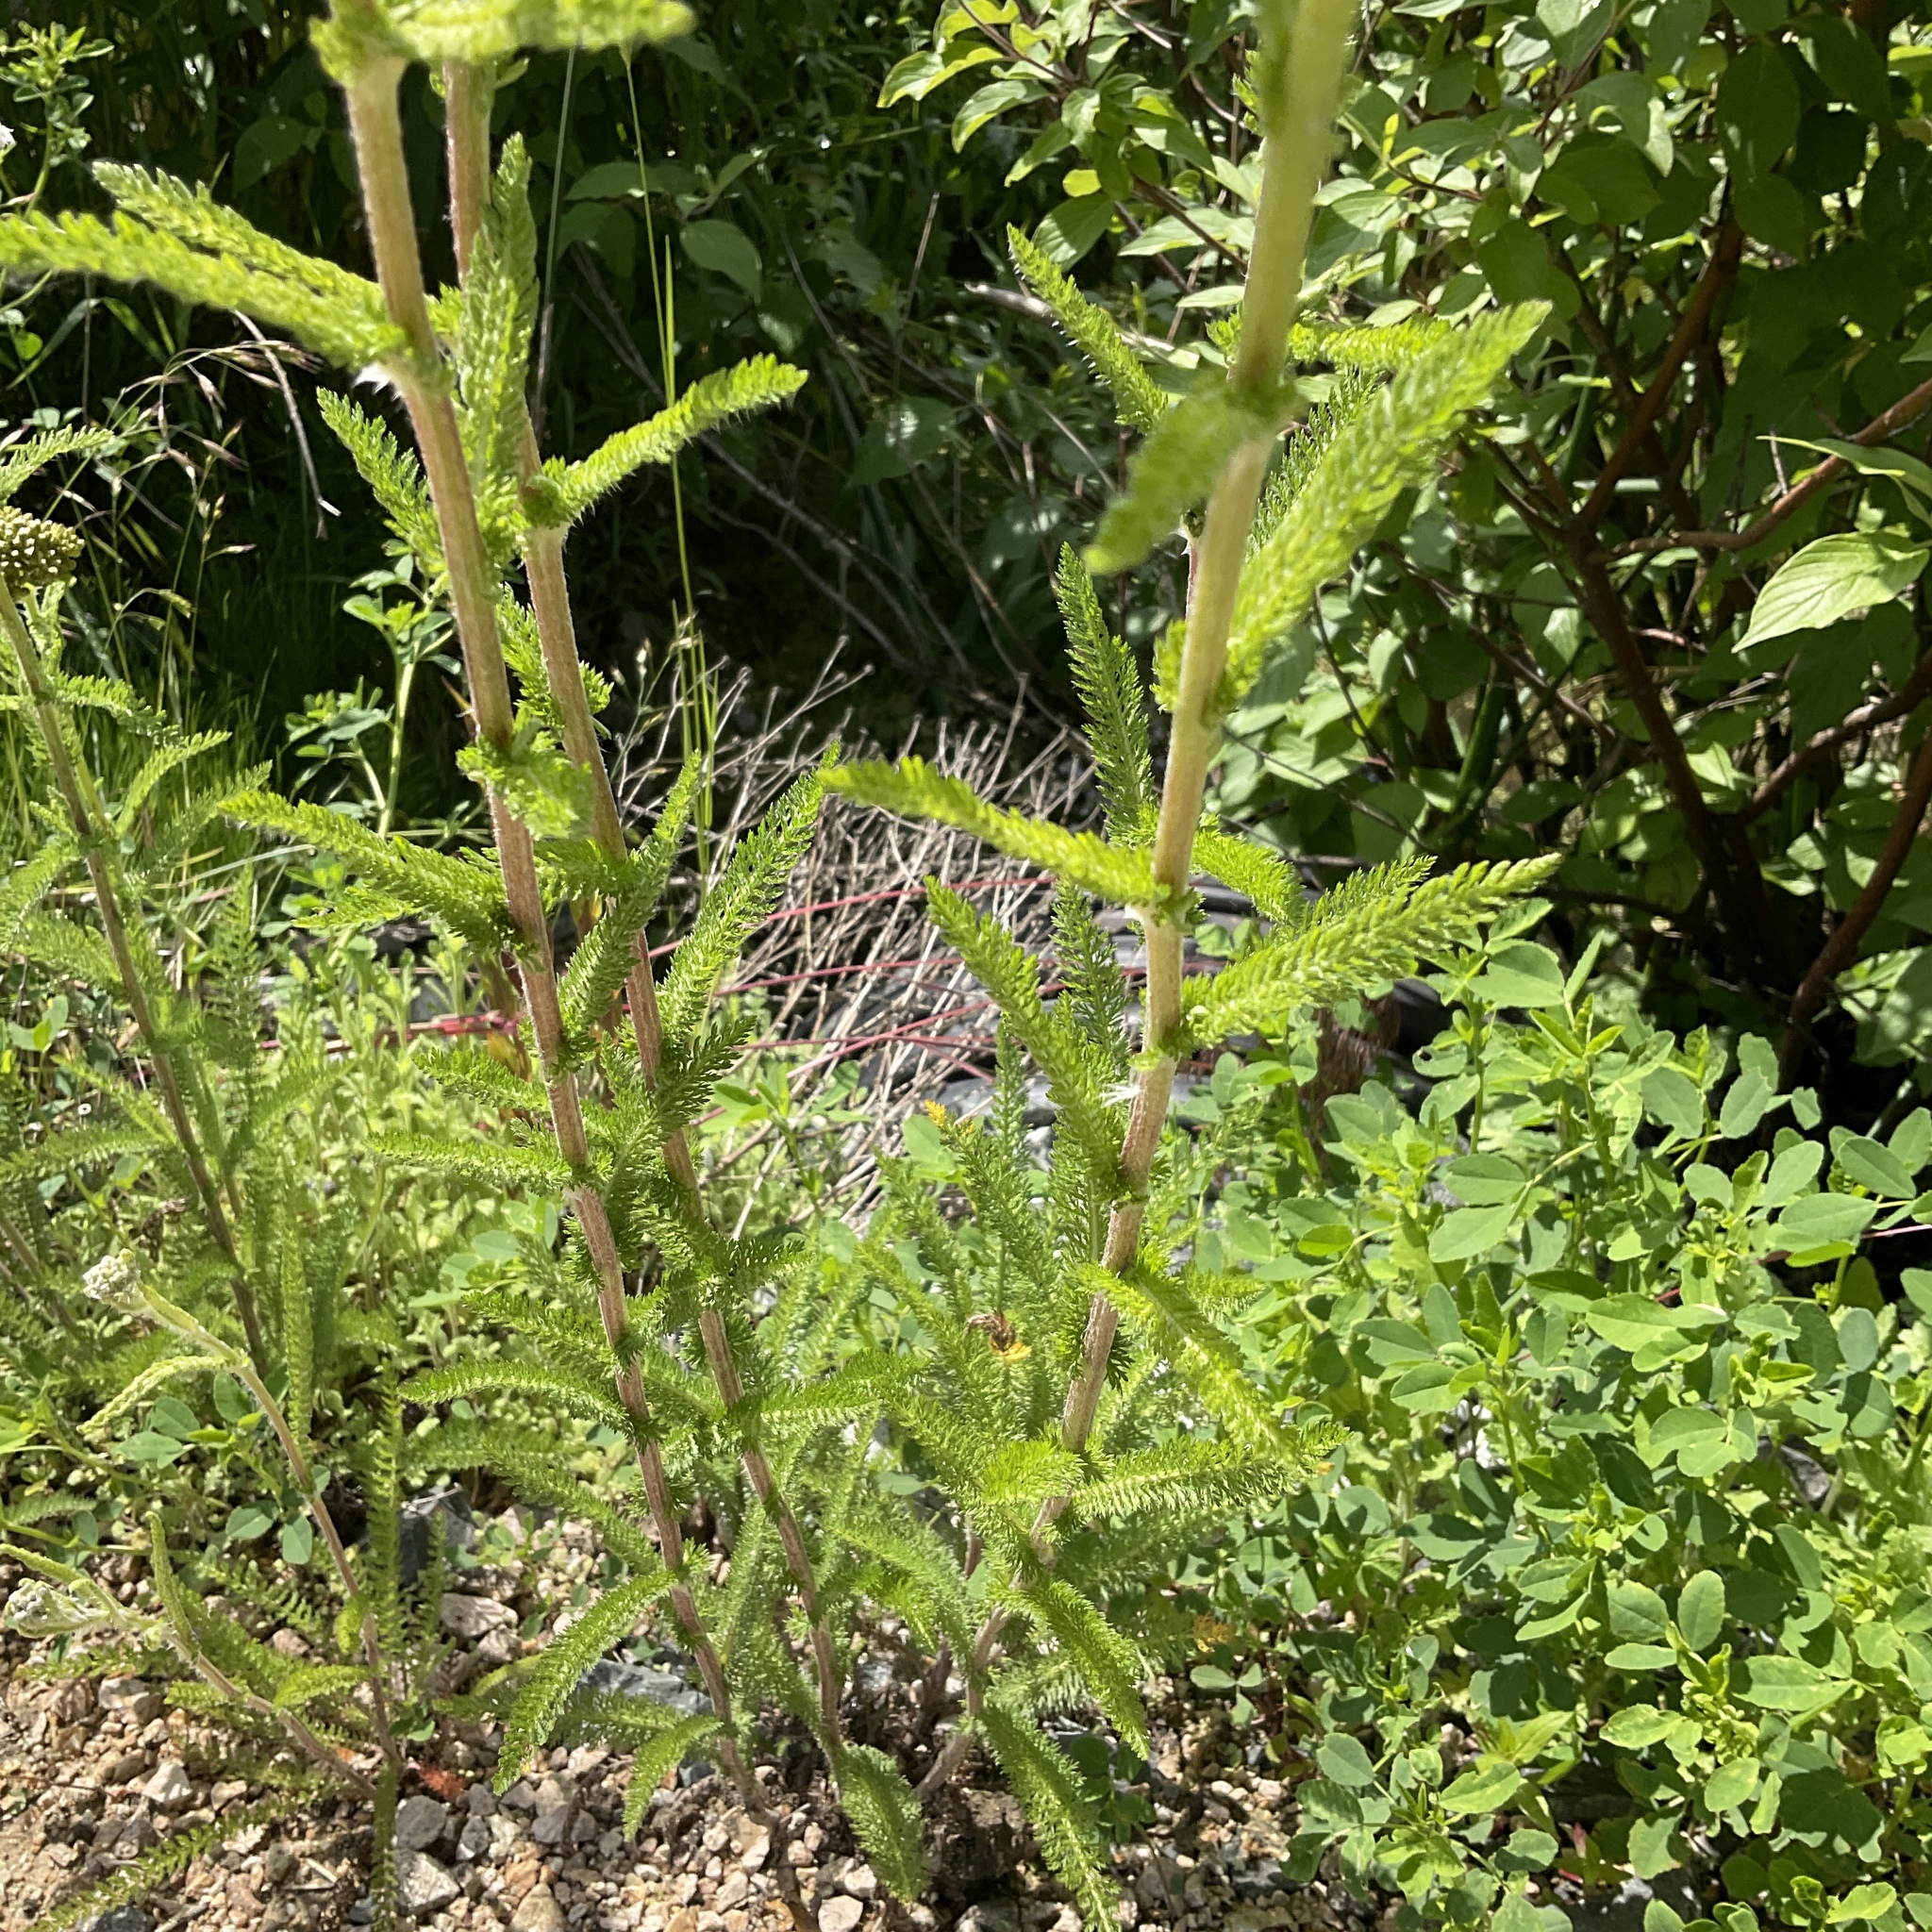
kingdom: Plantae
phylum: Tracheophyta
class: Magnoliopsida
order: Asterales
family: Asteraceae
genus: Achillea
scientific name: Achillea millefolium
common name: Yarrow
